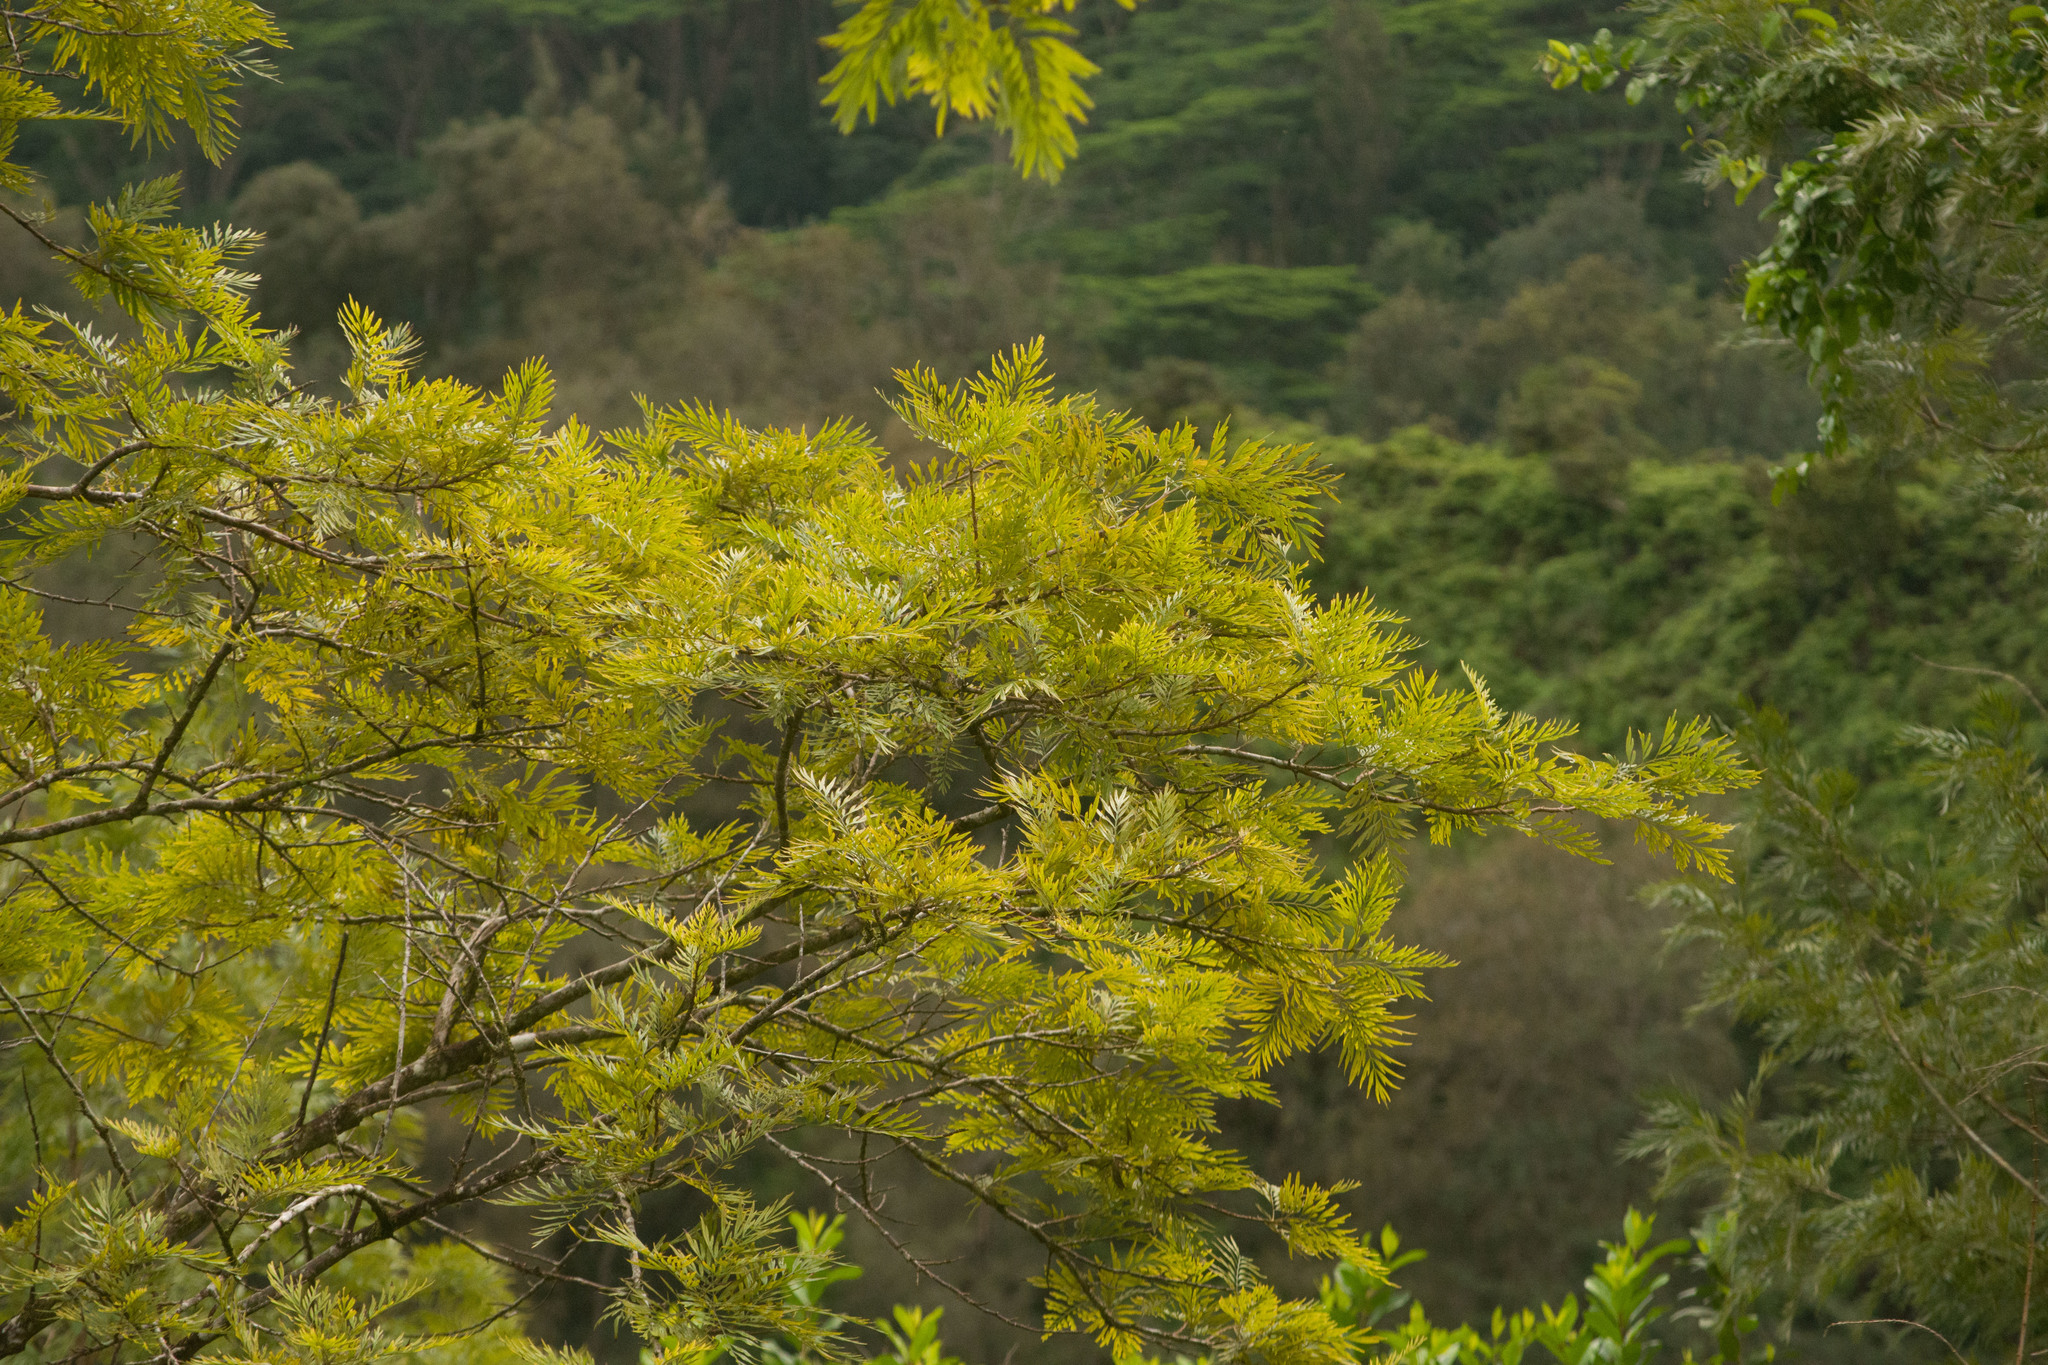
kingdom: Plantae
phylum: Tracheophyta
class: Magnoliopsida
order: Proteales
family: Proteaceae
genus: Grevillea
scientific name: Grevillea robusta
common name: Silkoak
